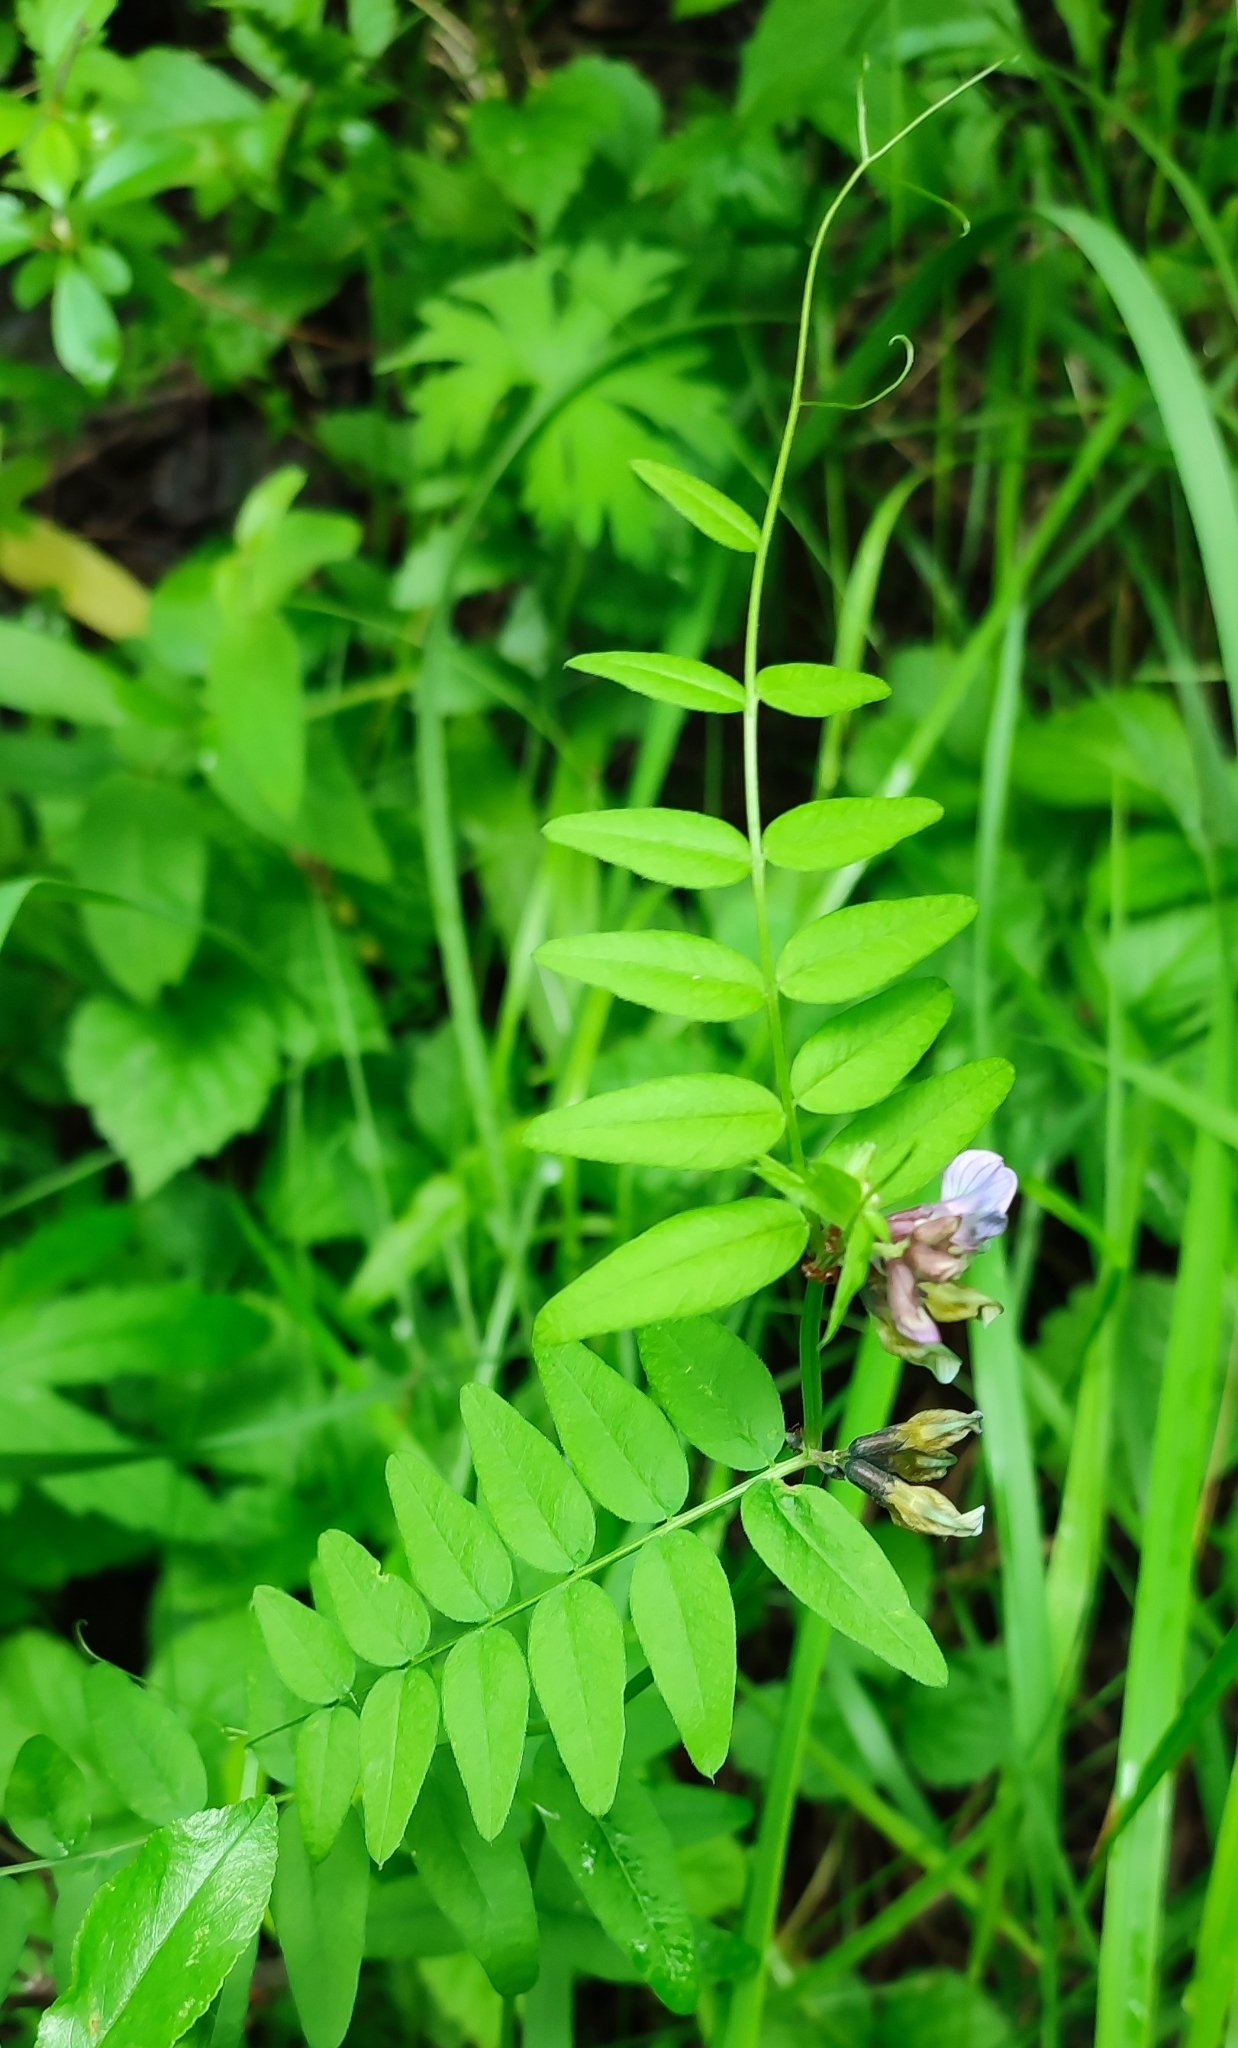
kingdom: Plantae
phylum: Tracheophyta
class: Magnoliopsida
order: Fabales
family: Fabaceae
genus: Vicia
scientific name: Vicia sepium
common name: Bush vetch
